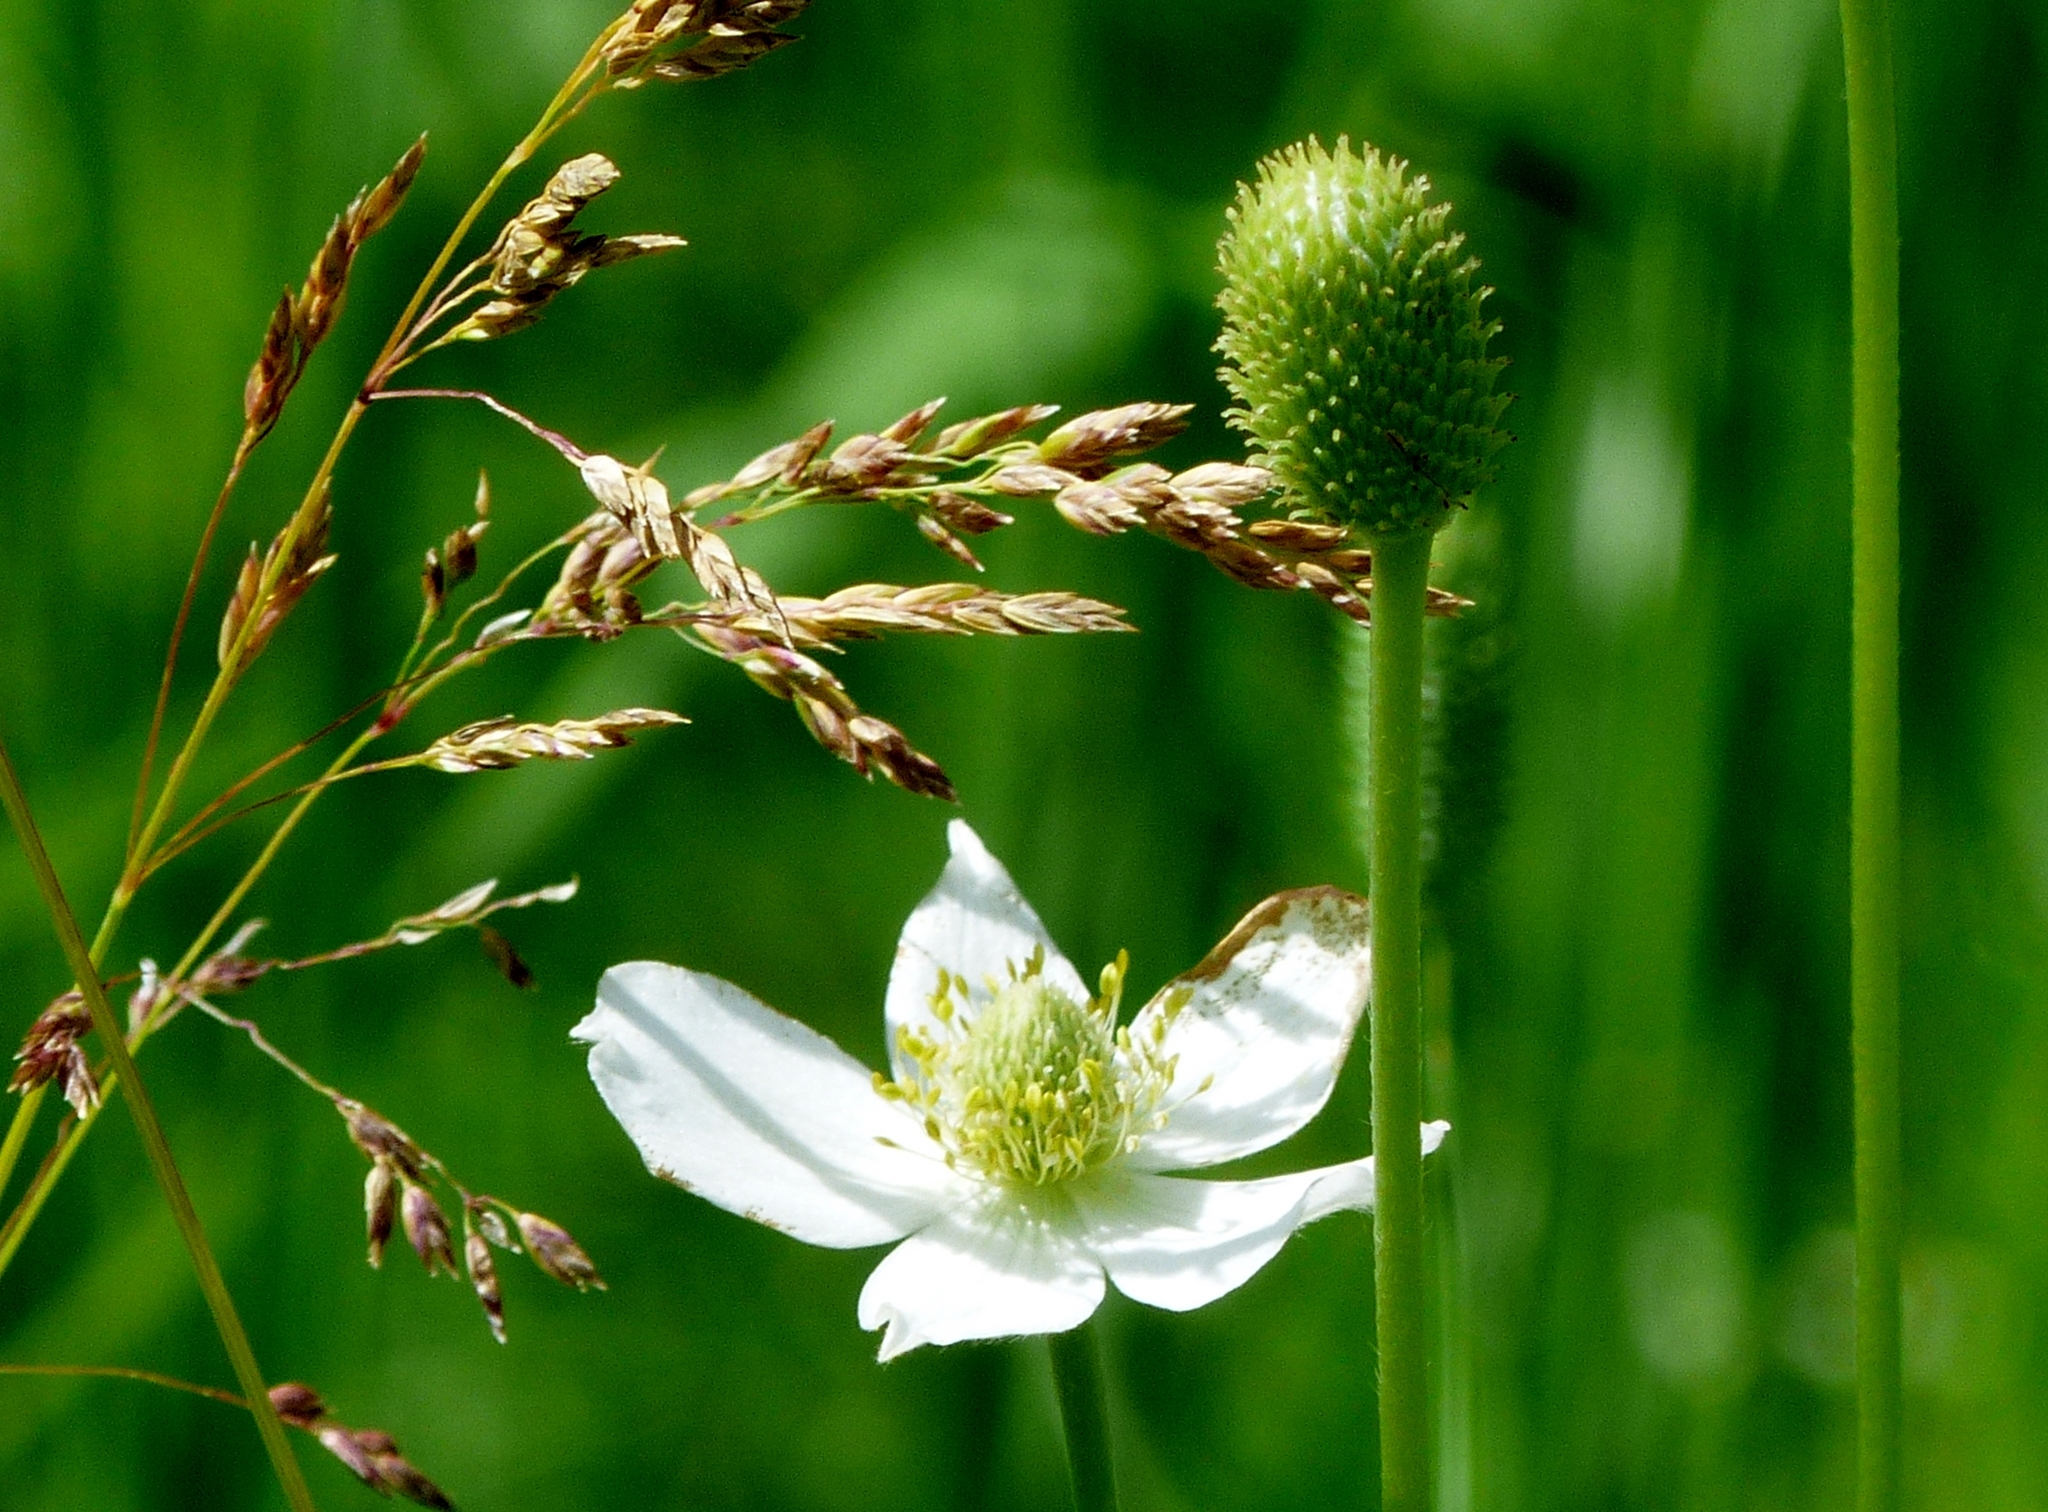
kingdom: Plantae
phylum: Tracheophyta
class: Magnoliopsida
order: Ranunculales
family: Ranunculaceae
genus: Anemone
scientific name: Anemone cylindrica
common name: Candle anemone
